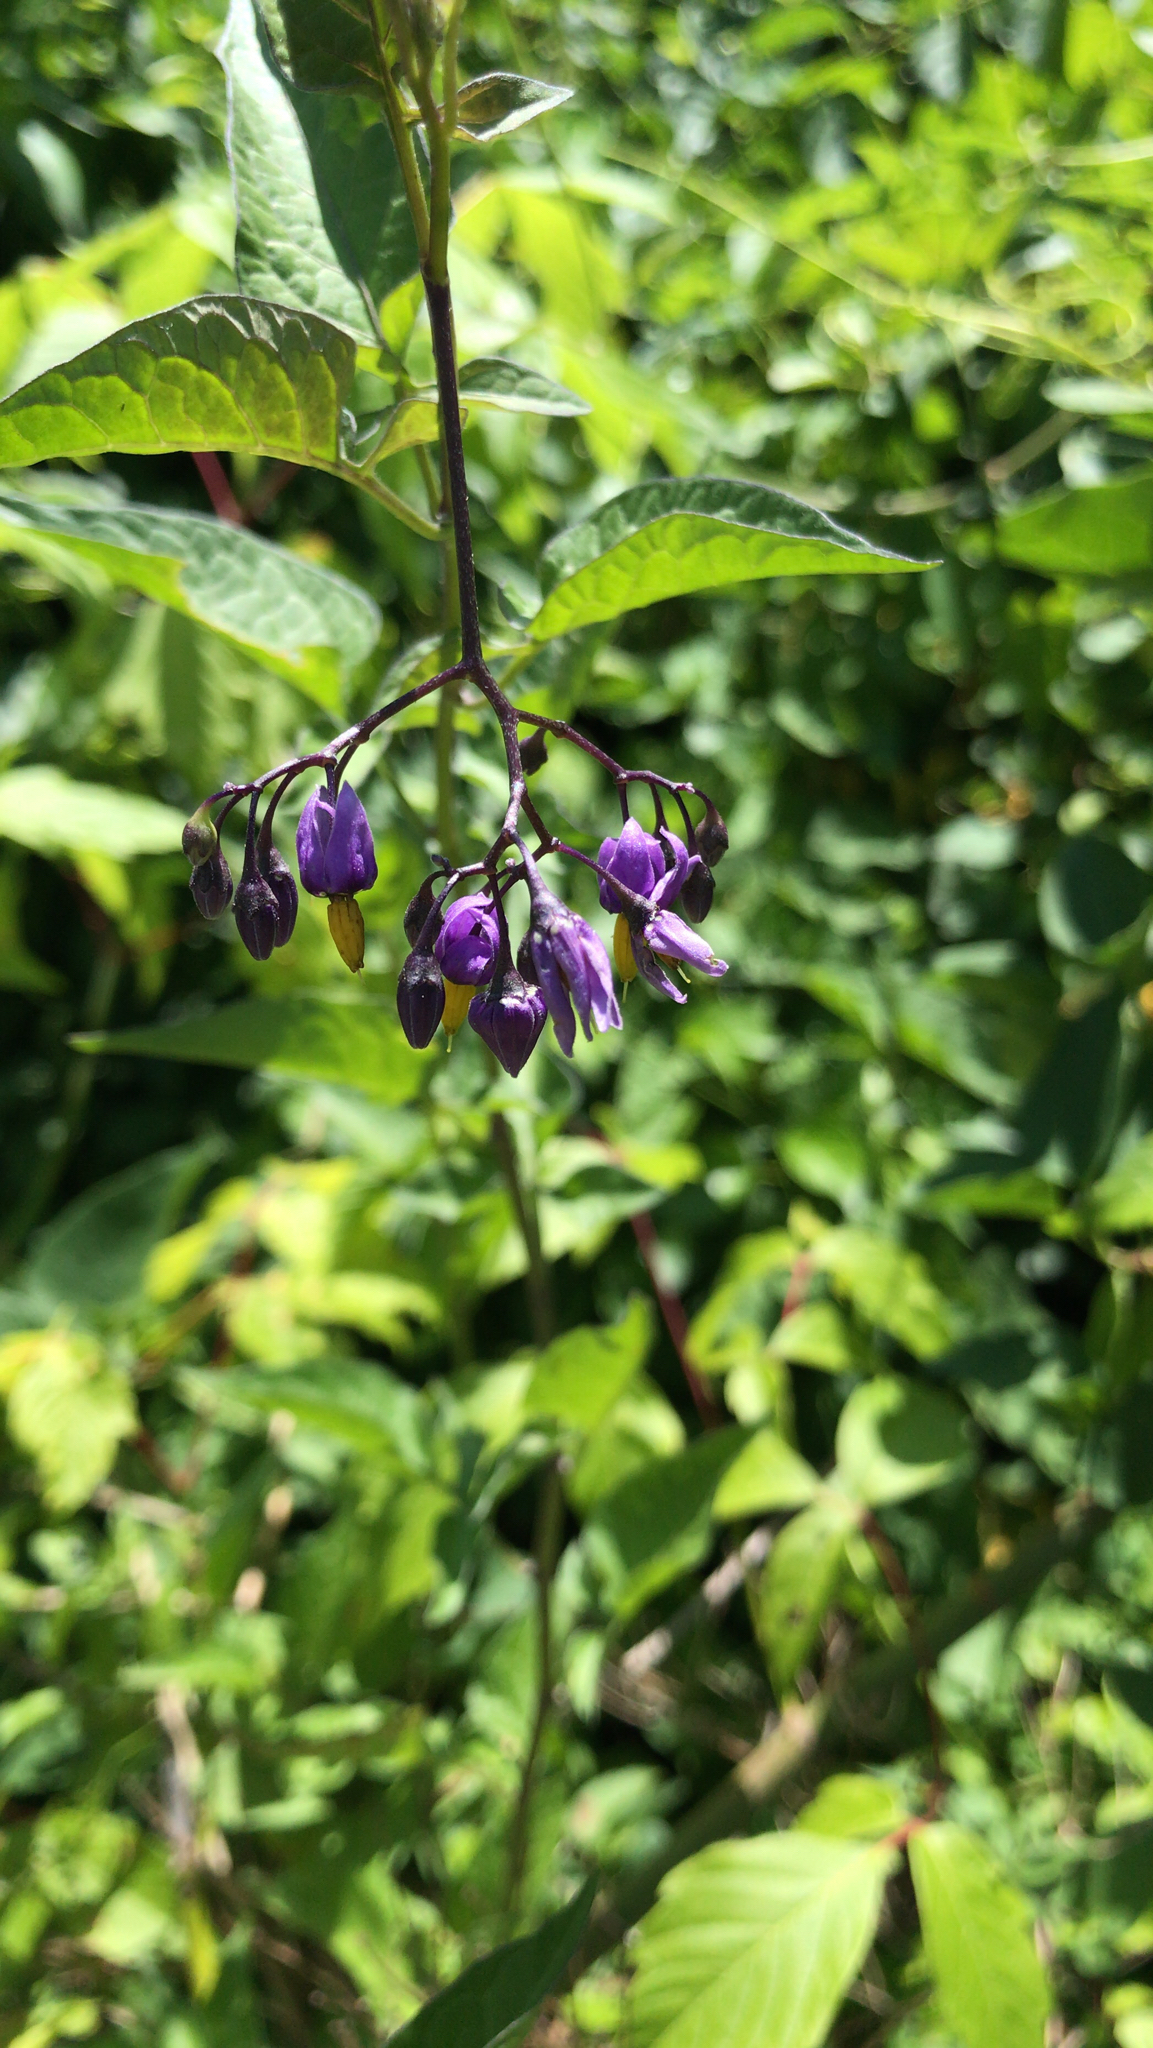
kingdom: Plantae
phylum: Tracheophyta
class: Magnoliopsida
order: Solanales
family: Solanaceae
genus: Solanum
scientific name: Solanum dulcamara
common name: Climbing nightshade
